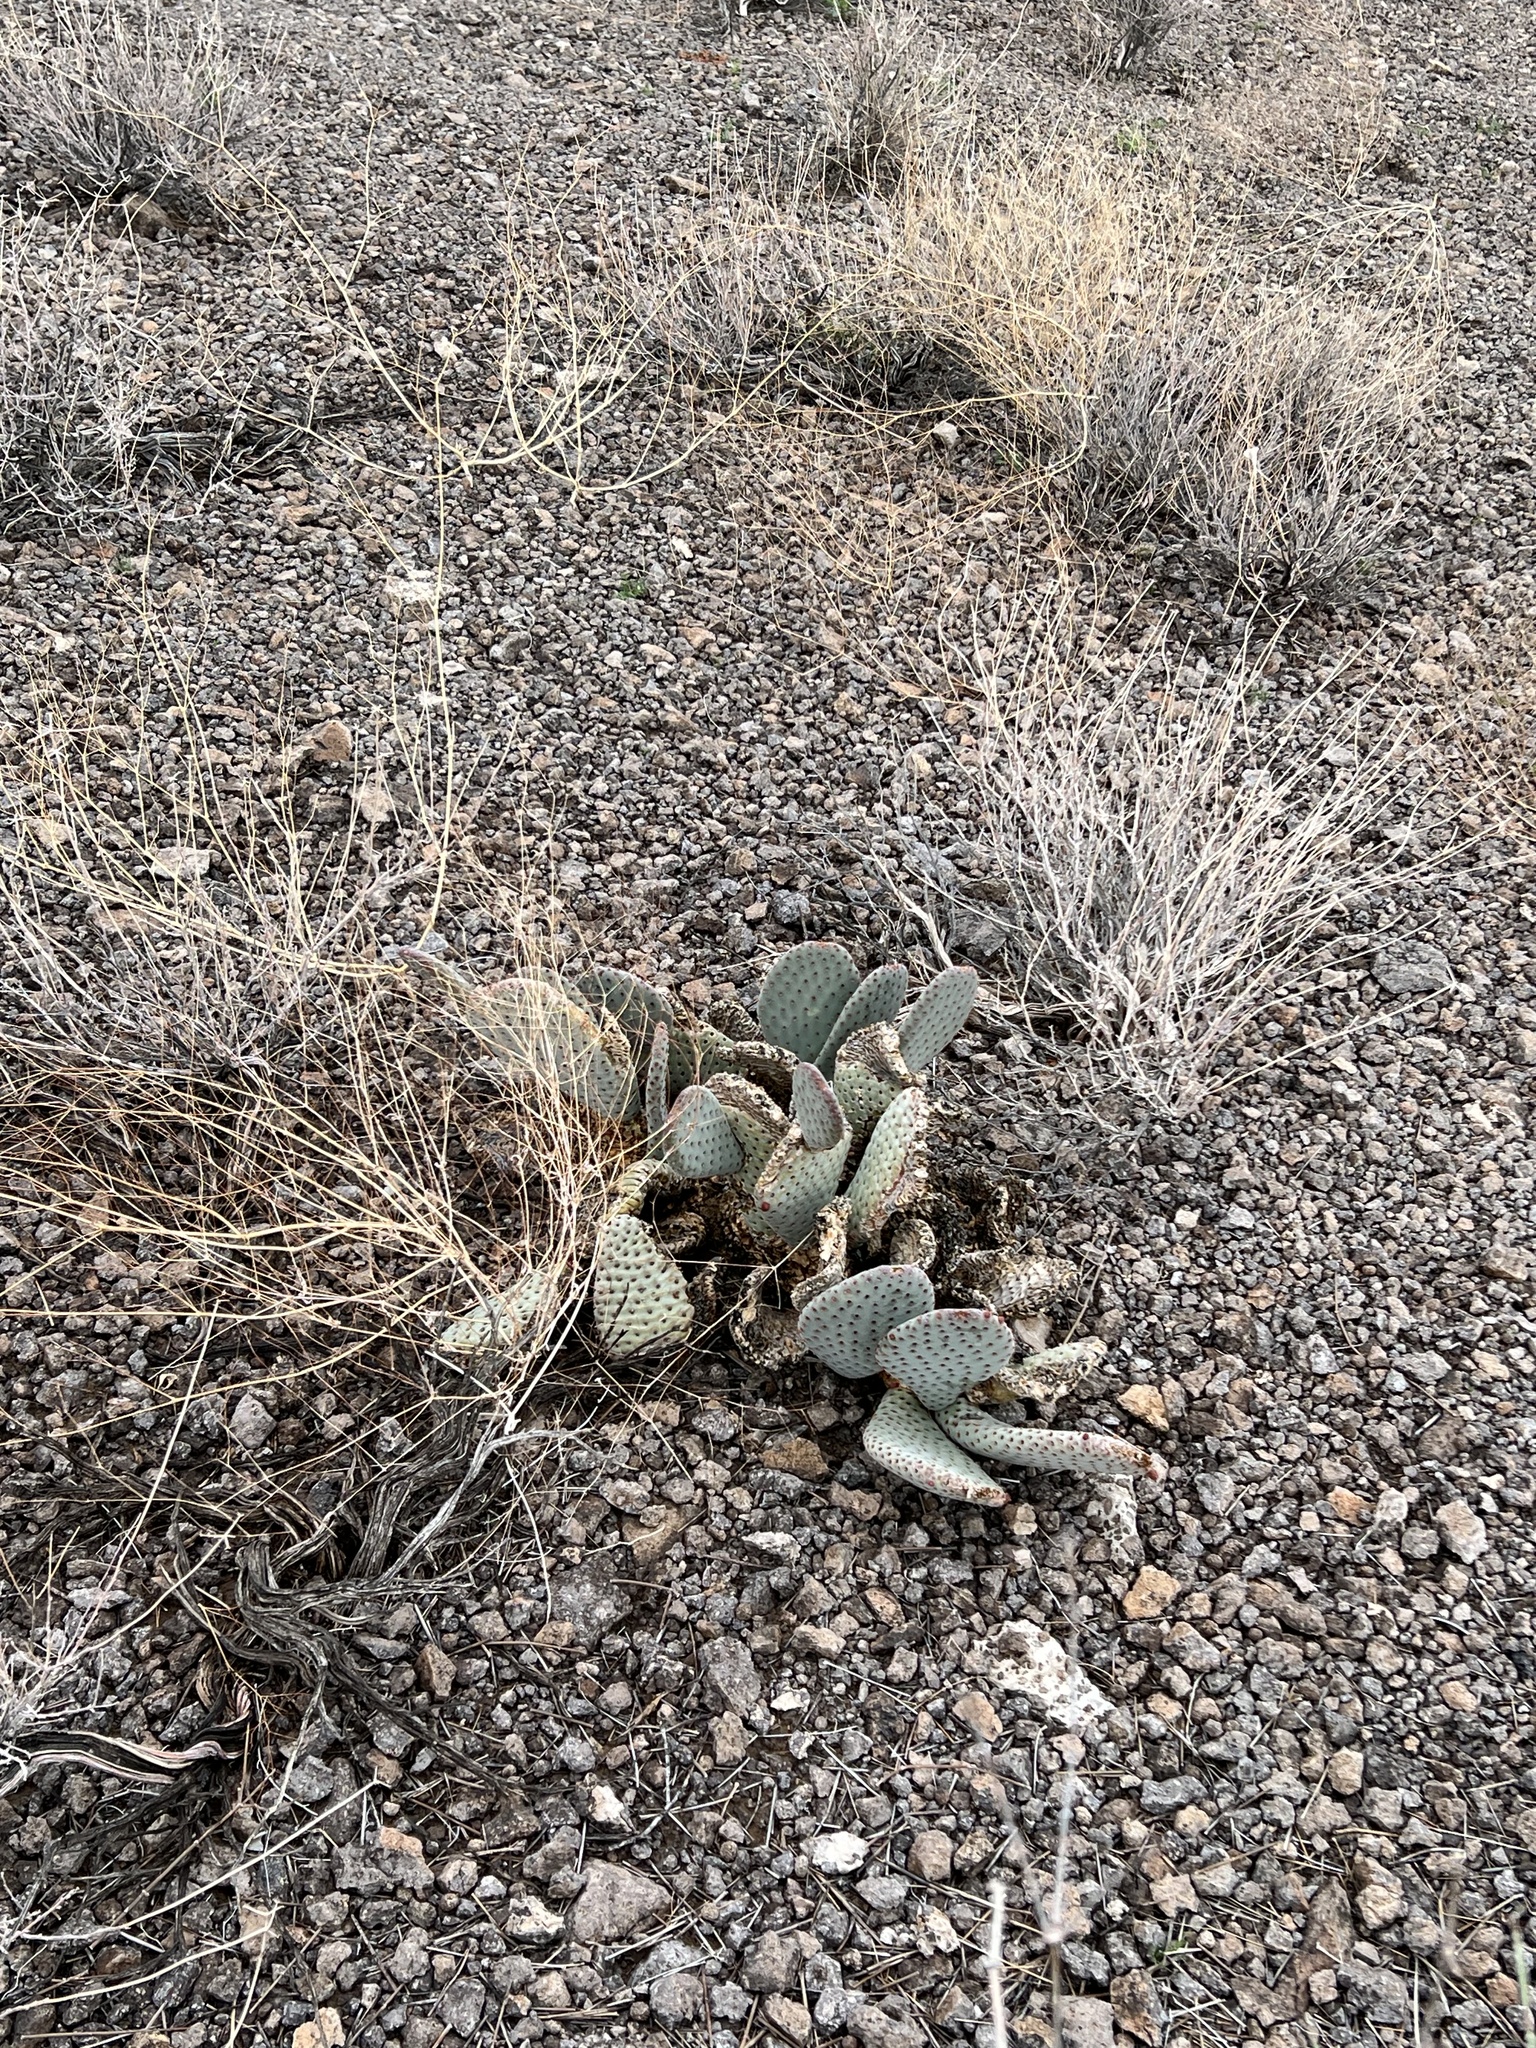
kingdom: Plantae
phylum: Tracheophyta
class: Magnoliopsida
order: Caryophyllales
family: Cactaceae
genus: Opuntia
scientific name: Opuntia basilaris
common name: Beavertail prickly-pear
